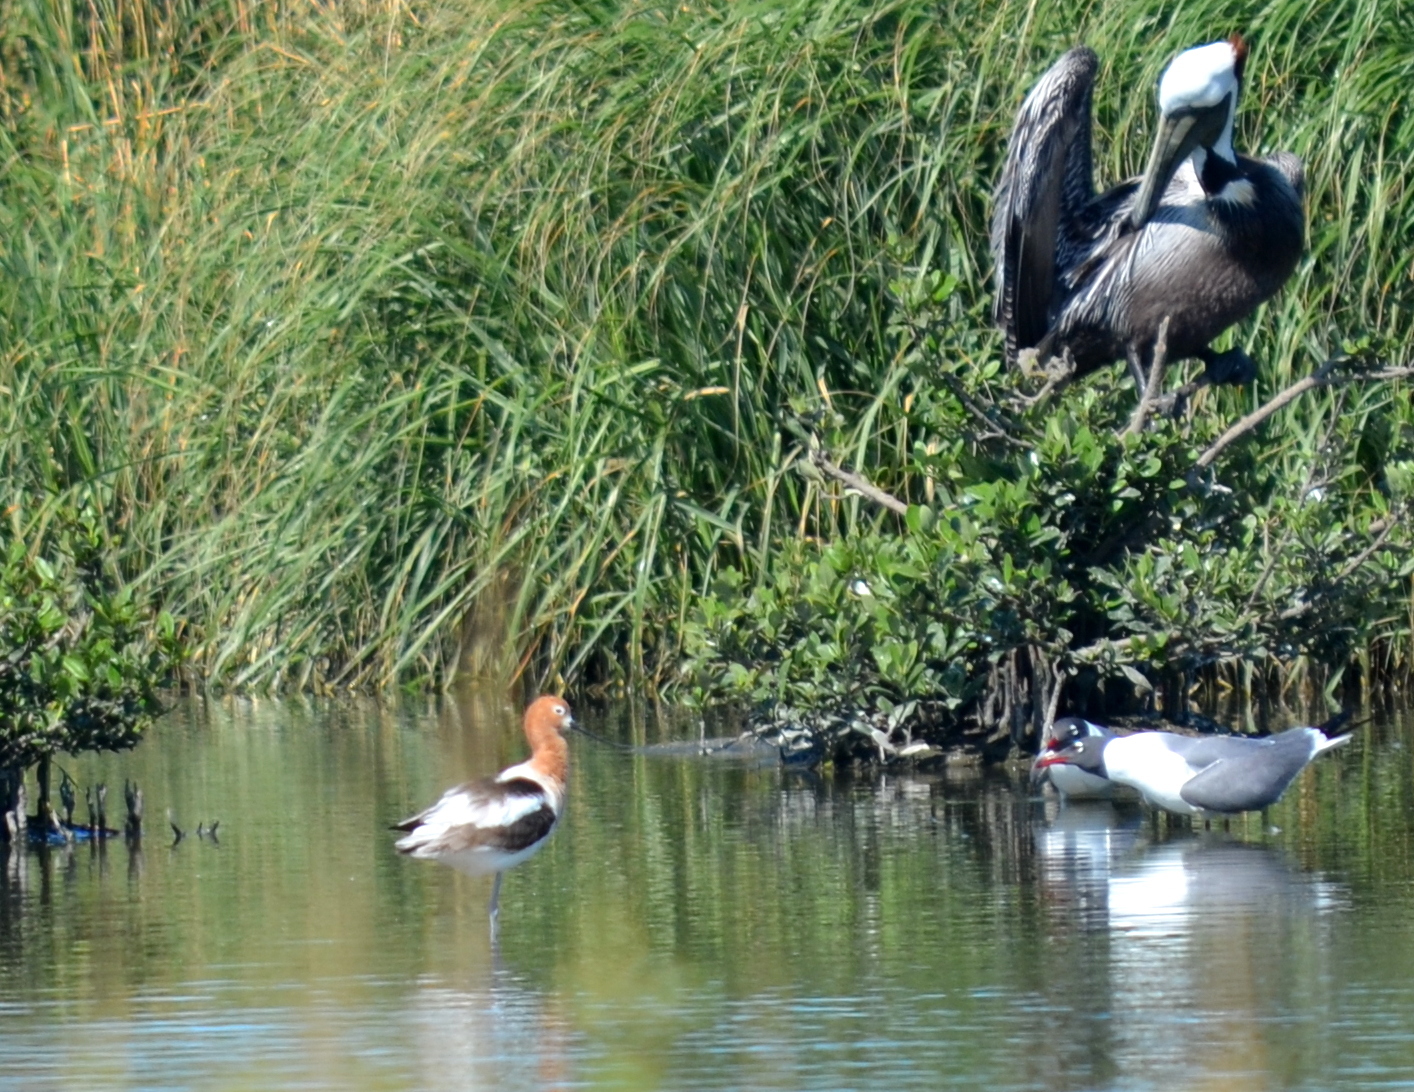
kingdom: Animalia
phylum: Chordata
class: Aves
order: Charadriiformes
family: Recurvirostridae
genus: Recurvirostra
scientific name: Recurvirostra americana
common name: American avocet
